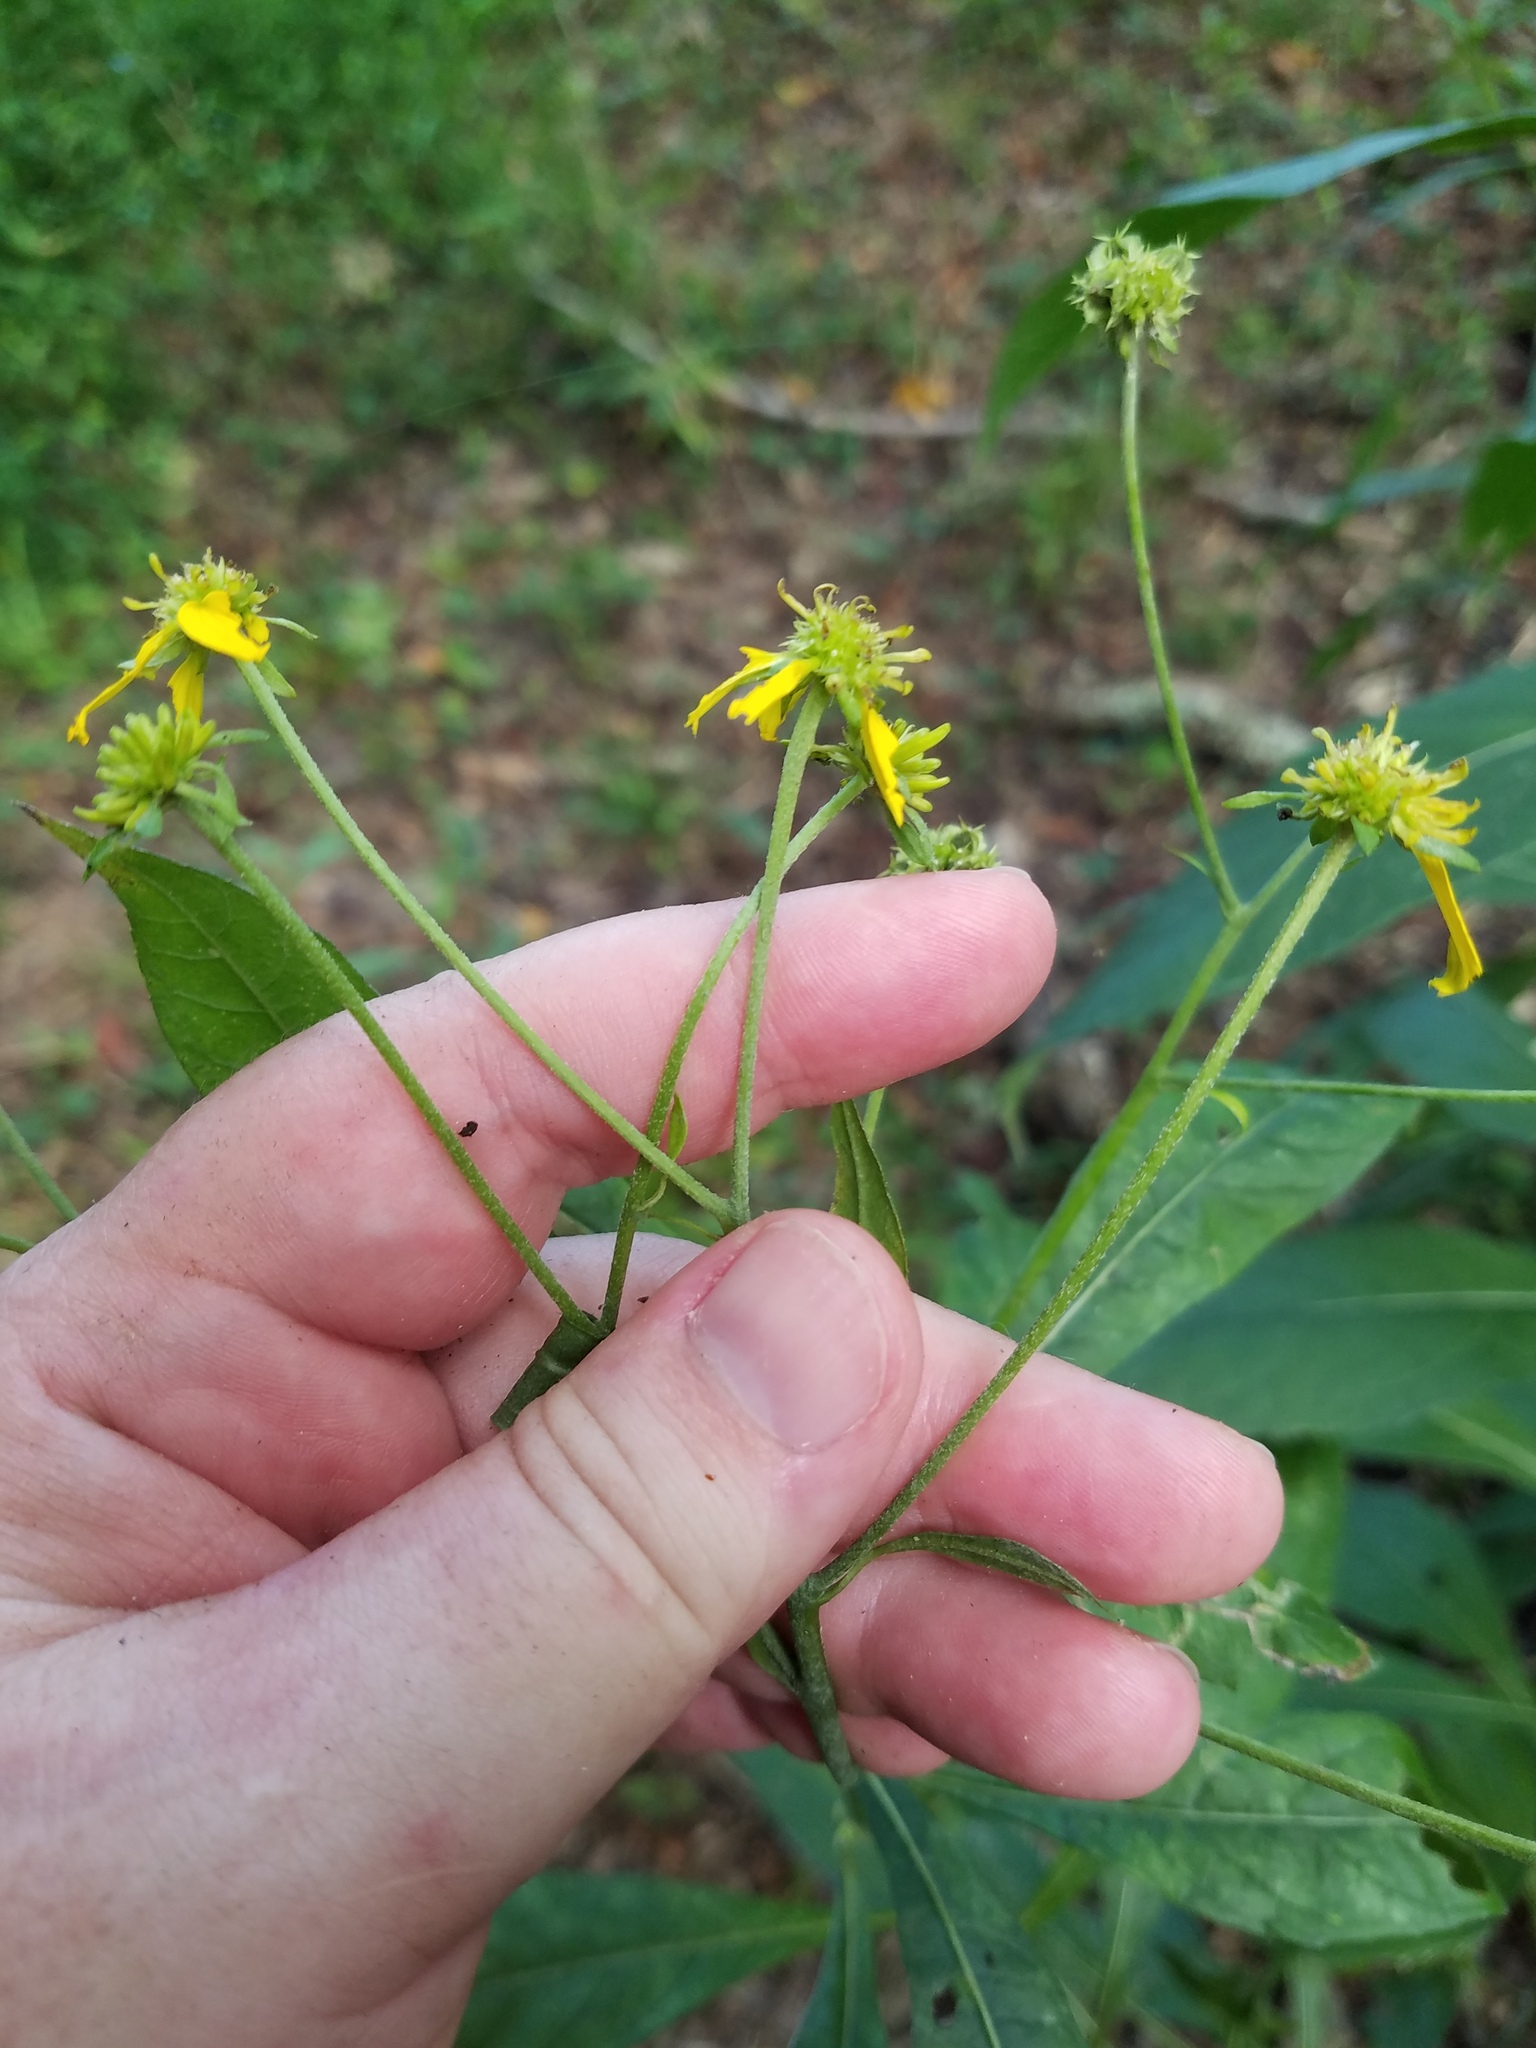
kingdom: Plantae
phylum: Tracheophyta
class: Magnoliopsida
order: Asterales
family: Asteraceae
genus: Verbesina
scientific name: Verbesina alternifolia
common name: Wingstem
